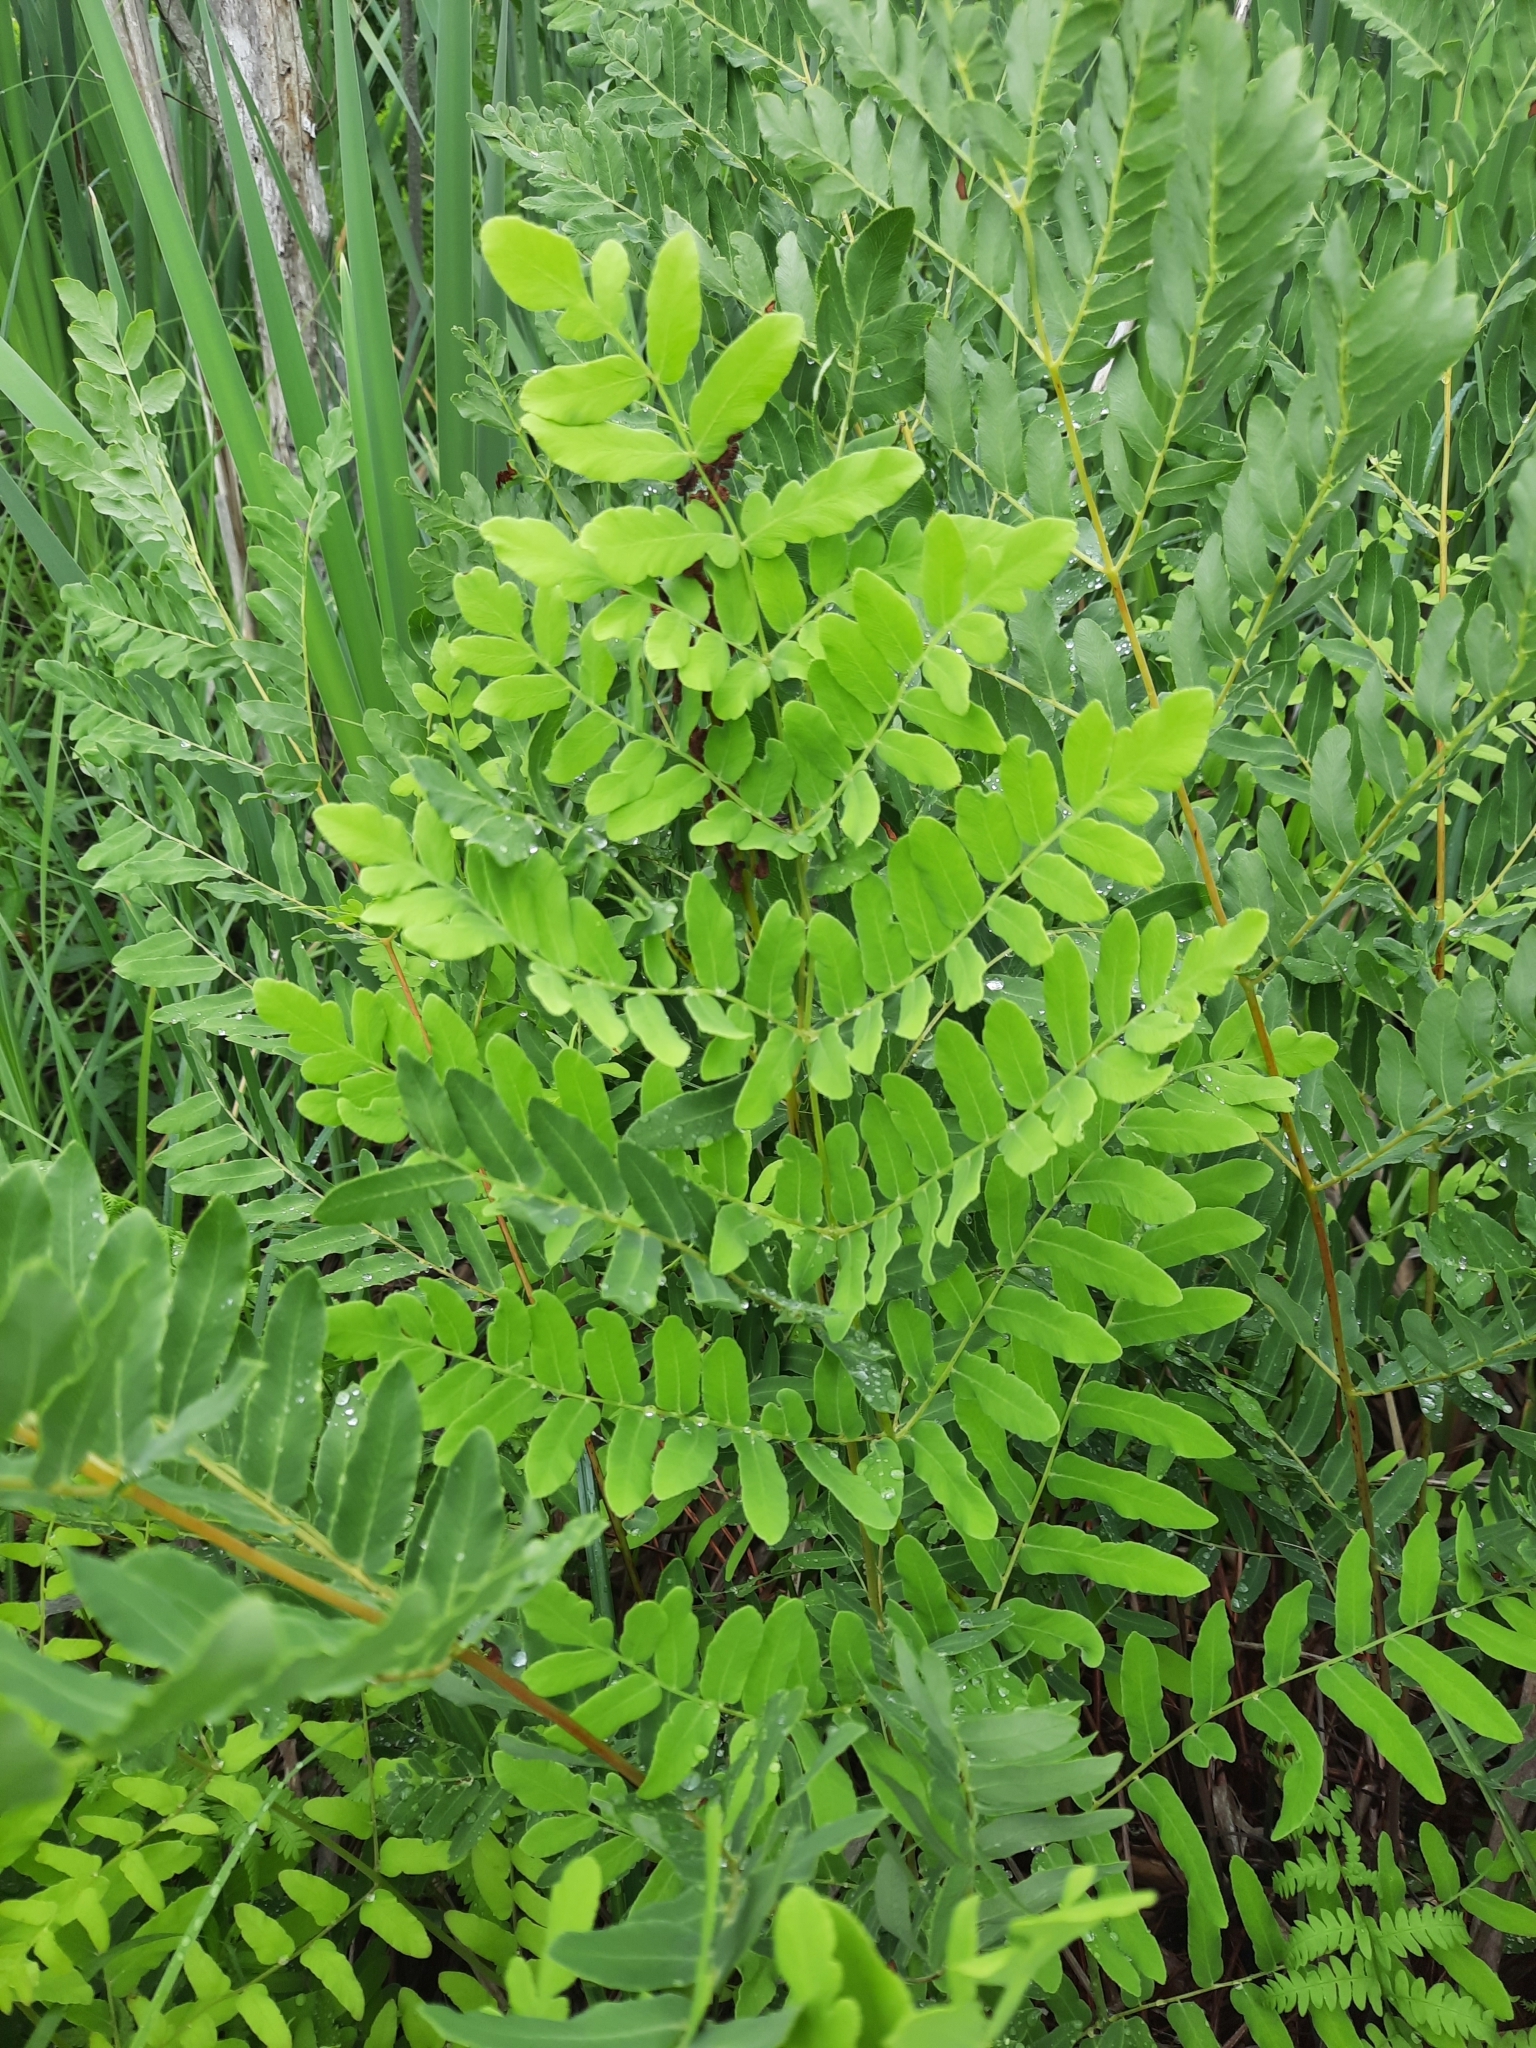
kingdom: Plantae
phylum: Tracheophyta
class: Polypodiopsida
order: Osmundales
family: Osmundaceae
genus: Osmunda
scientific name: Osmunda spectabilis
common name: American royal fern
